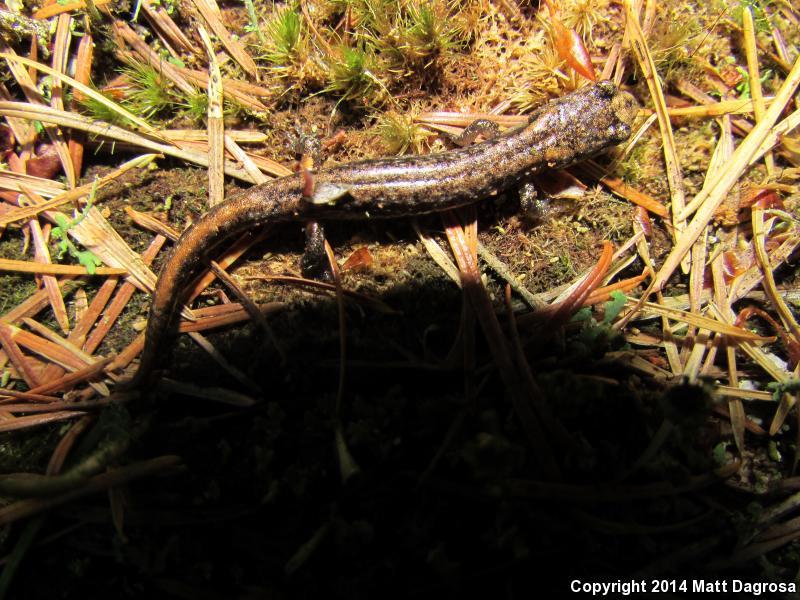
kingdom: Animalia
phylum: Chordata
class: Amphibia
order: Caudata
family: Plethodontidae
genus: Aneides
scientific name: Aneides ferreus
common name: Clouded salamander
